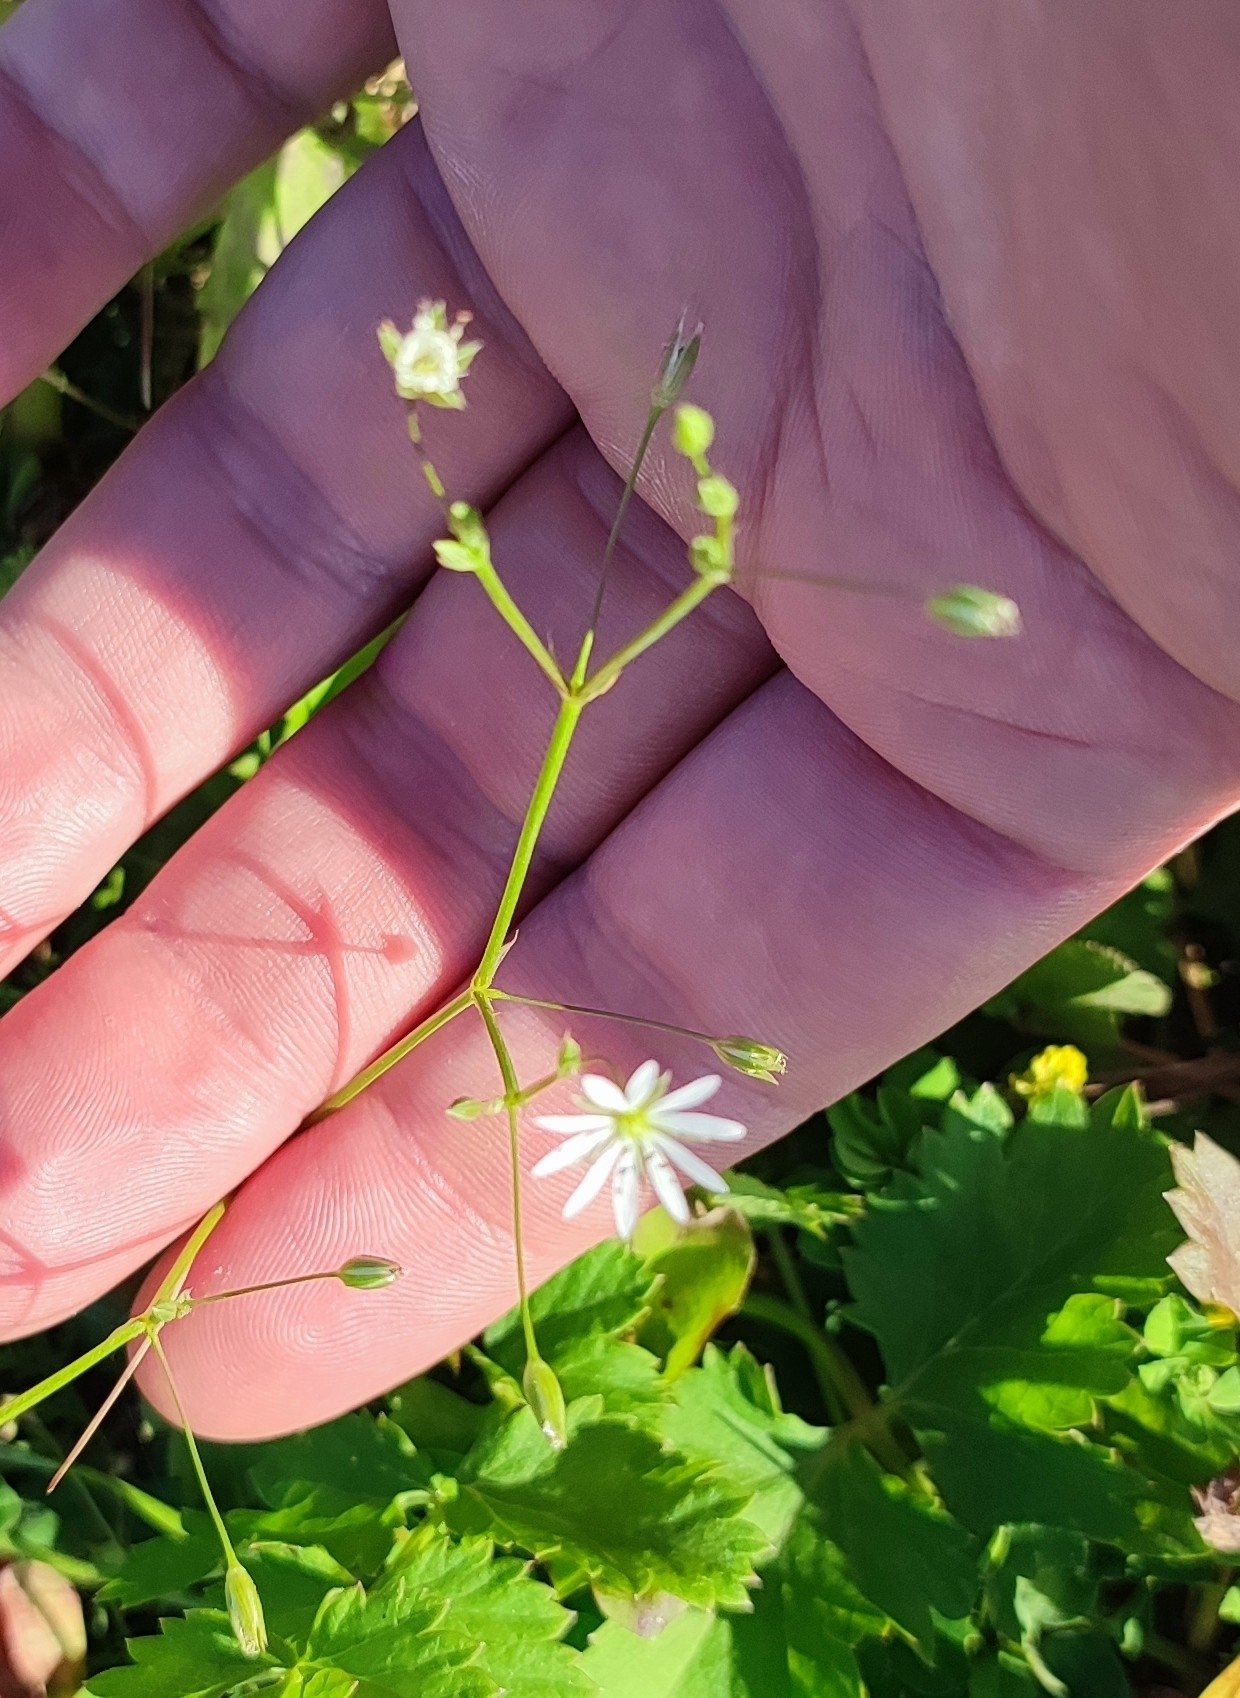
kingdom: Plantae
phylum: Tracheophyta
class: Magnoliopsida
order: Caryophyllales
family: Caryophyllaceae
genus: Stellaria
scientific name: Stellaria graminea
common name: Grass-like starwort
